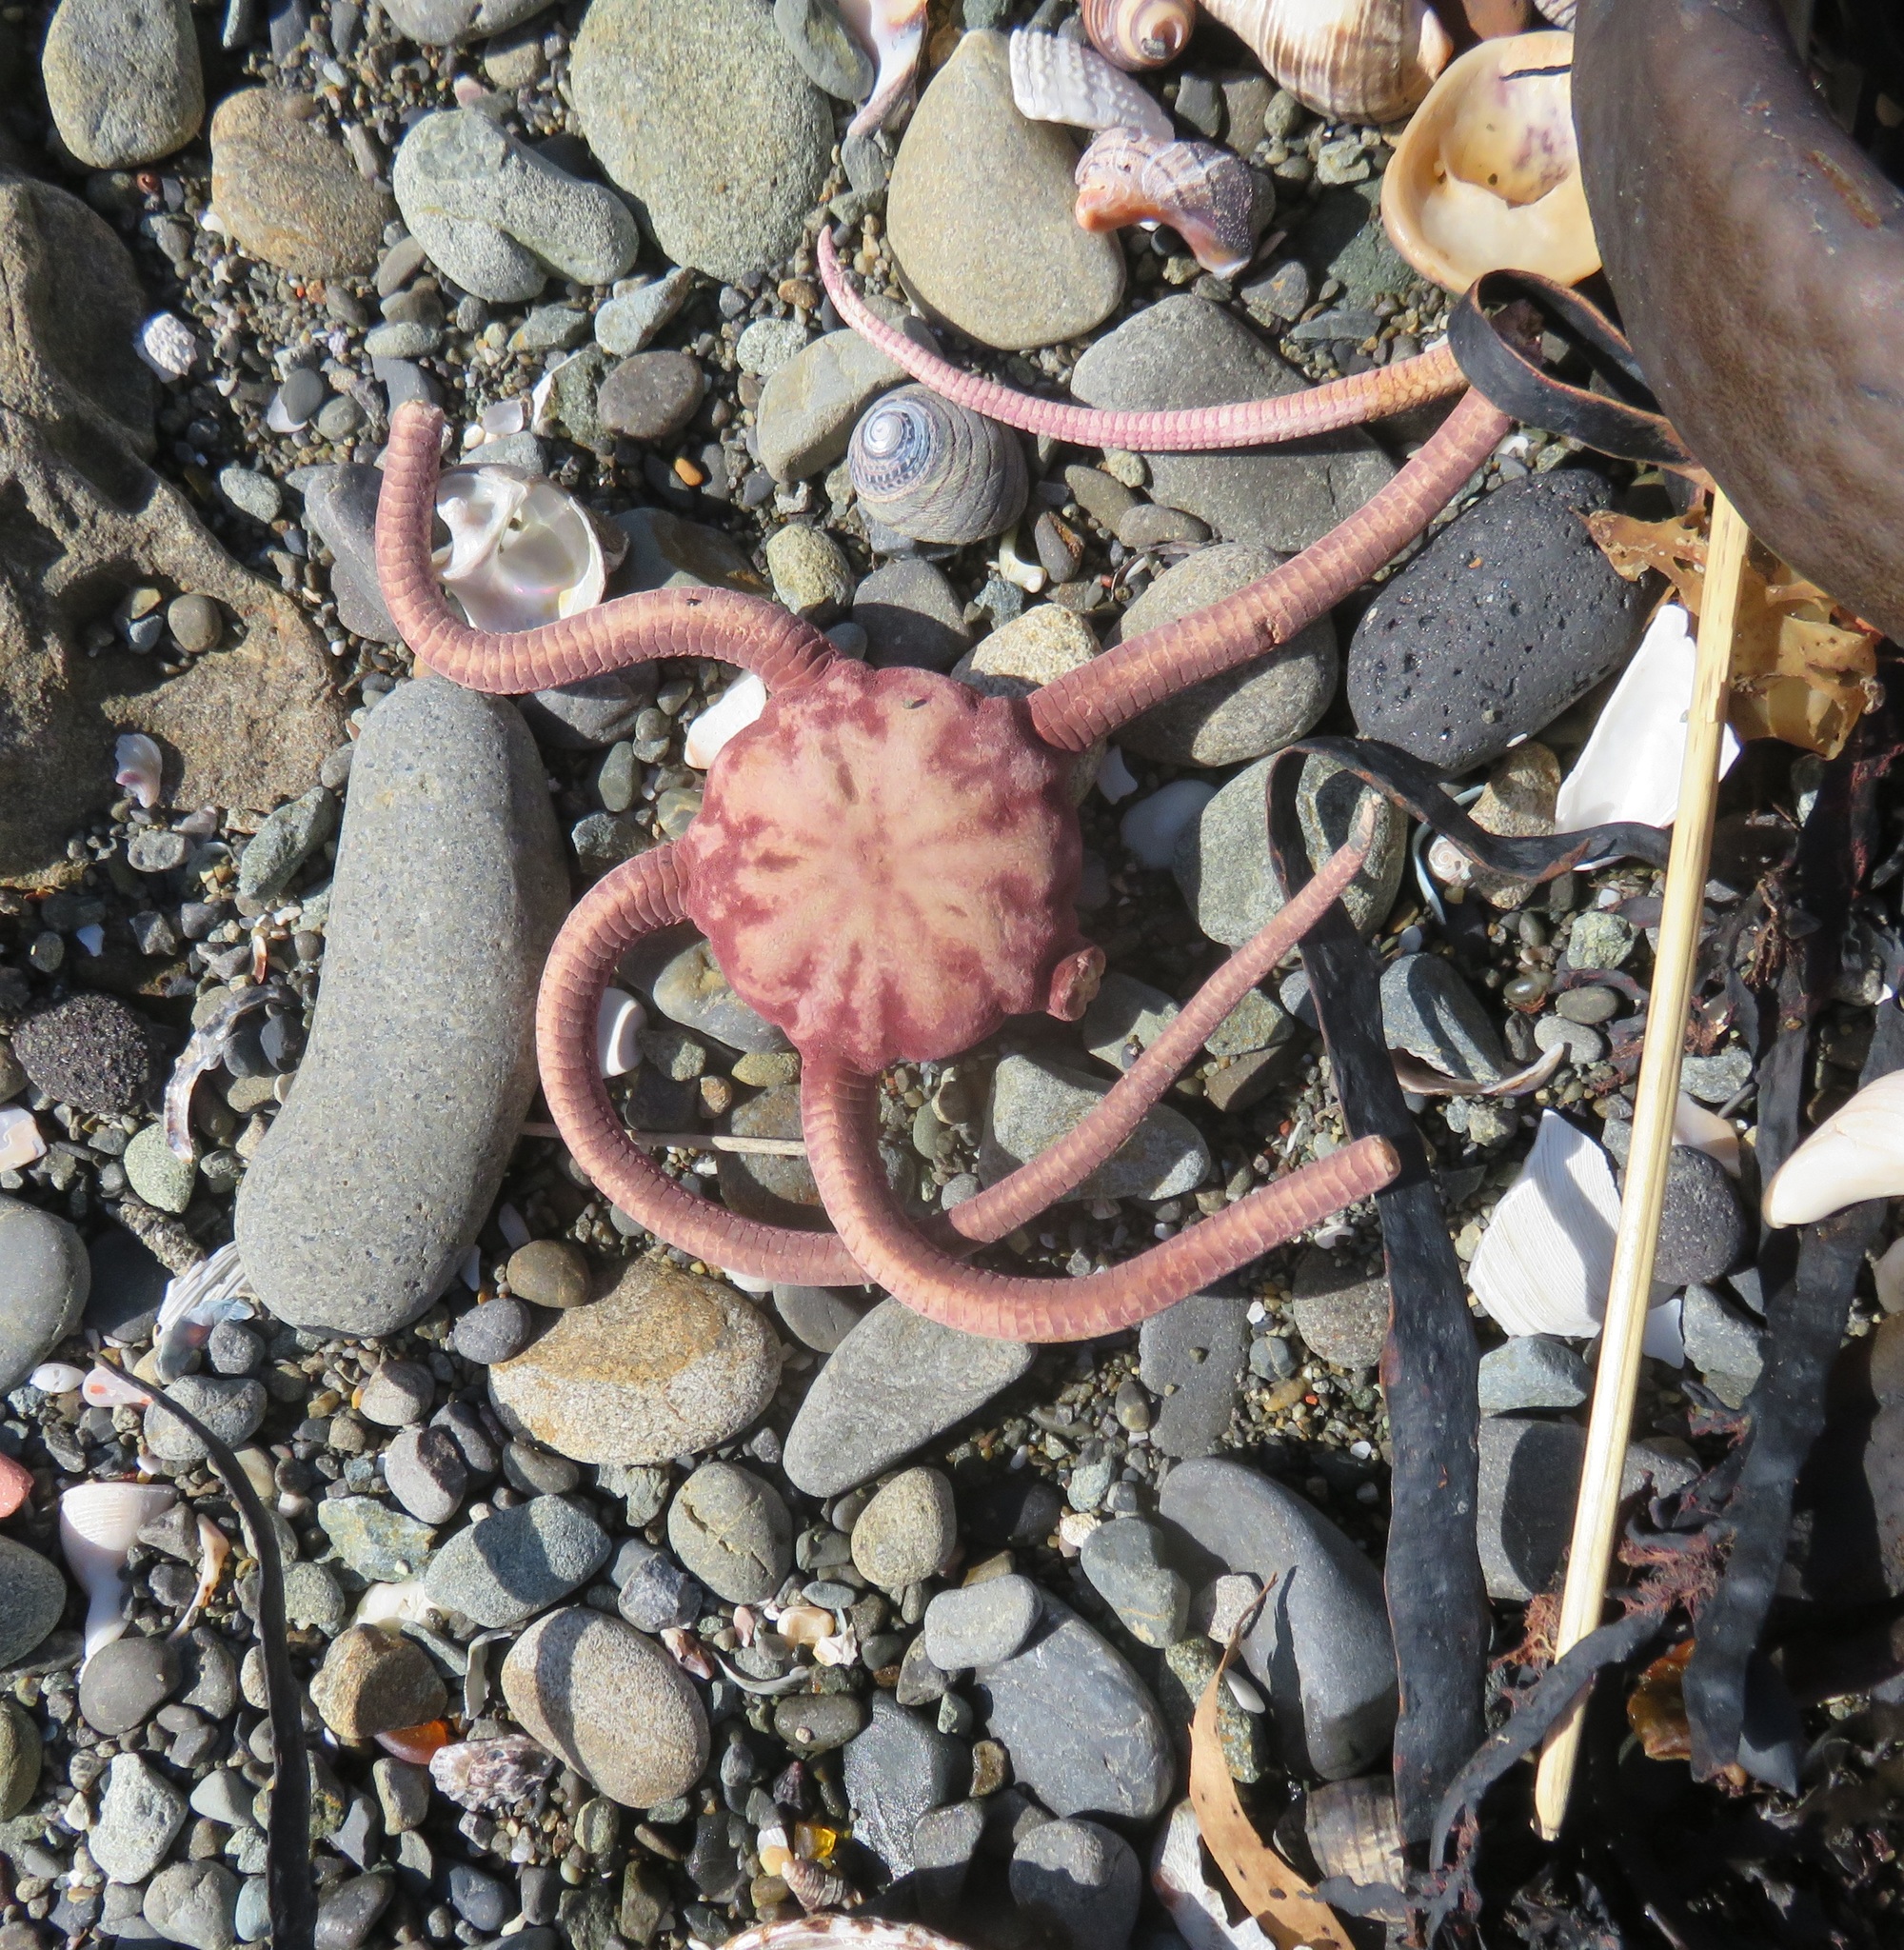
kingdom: Animalia
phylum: Echinodermata
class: Ophiuroidea
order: Ophiacanthida
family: Ophiodermatidae
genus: Ophiopsammus
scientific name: Ophiopsammus maculata
